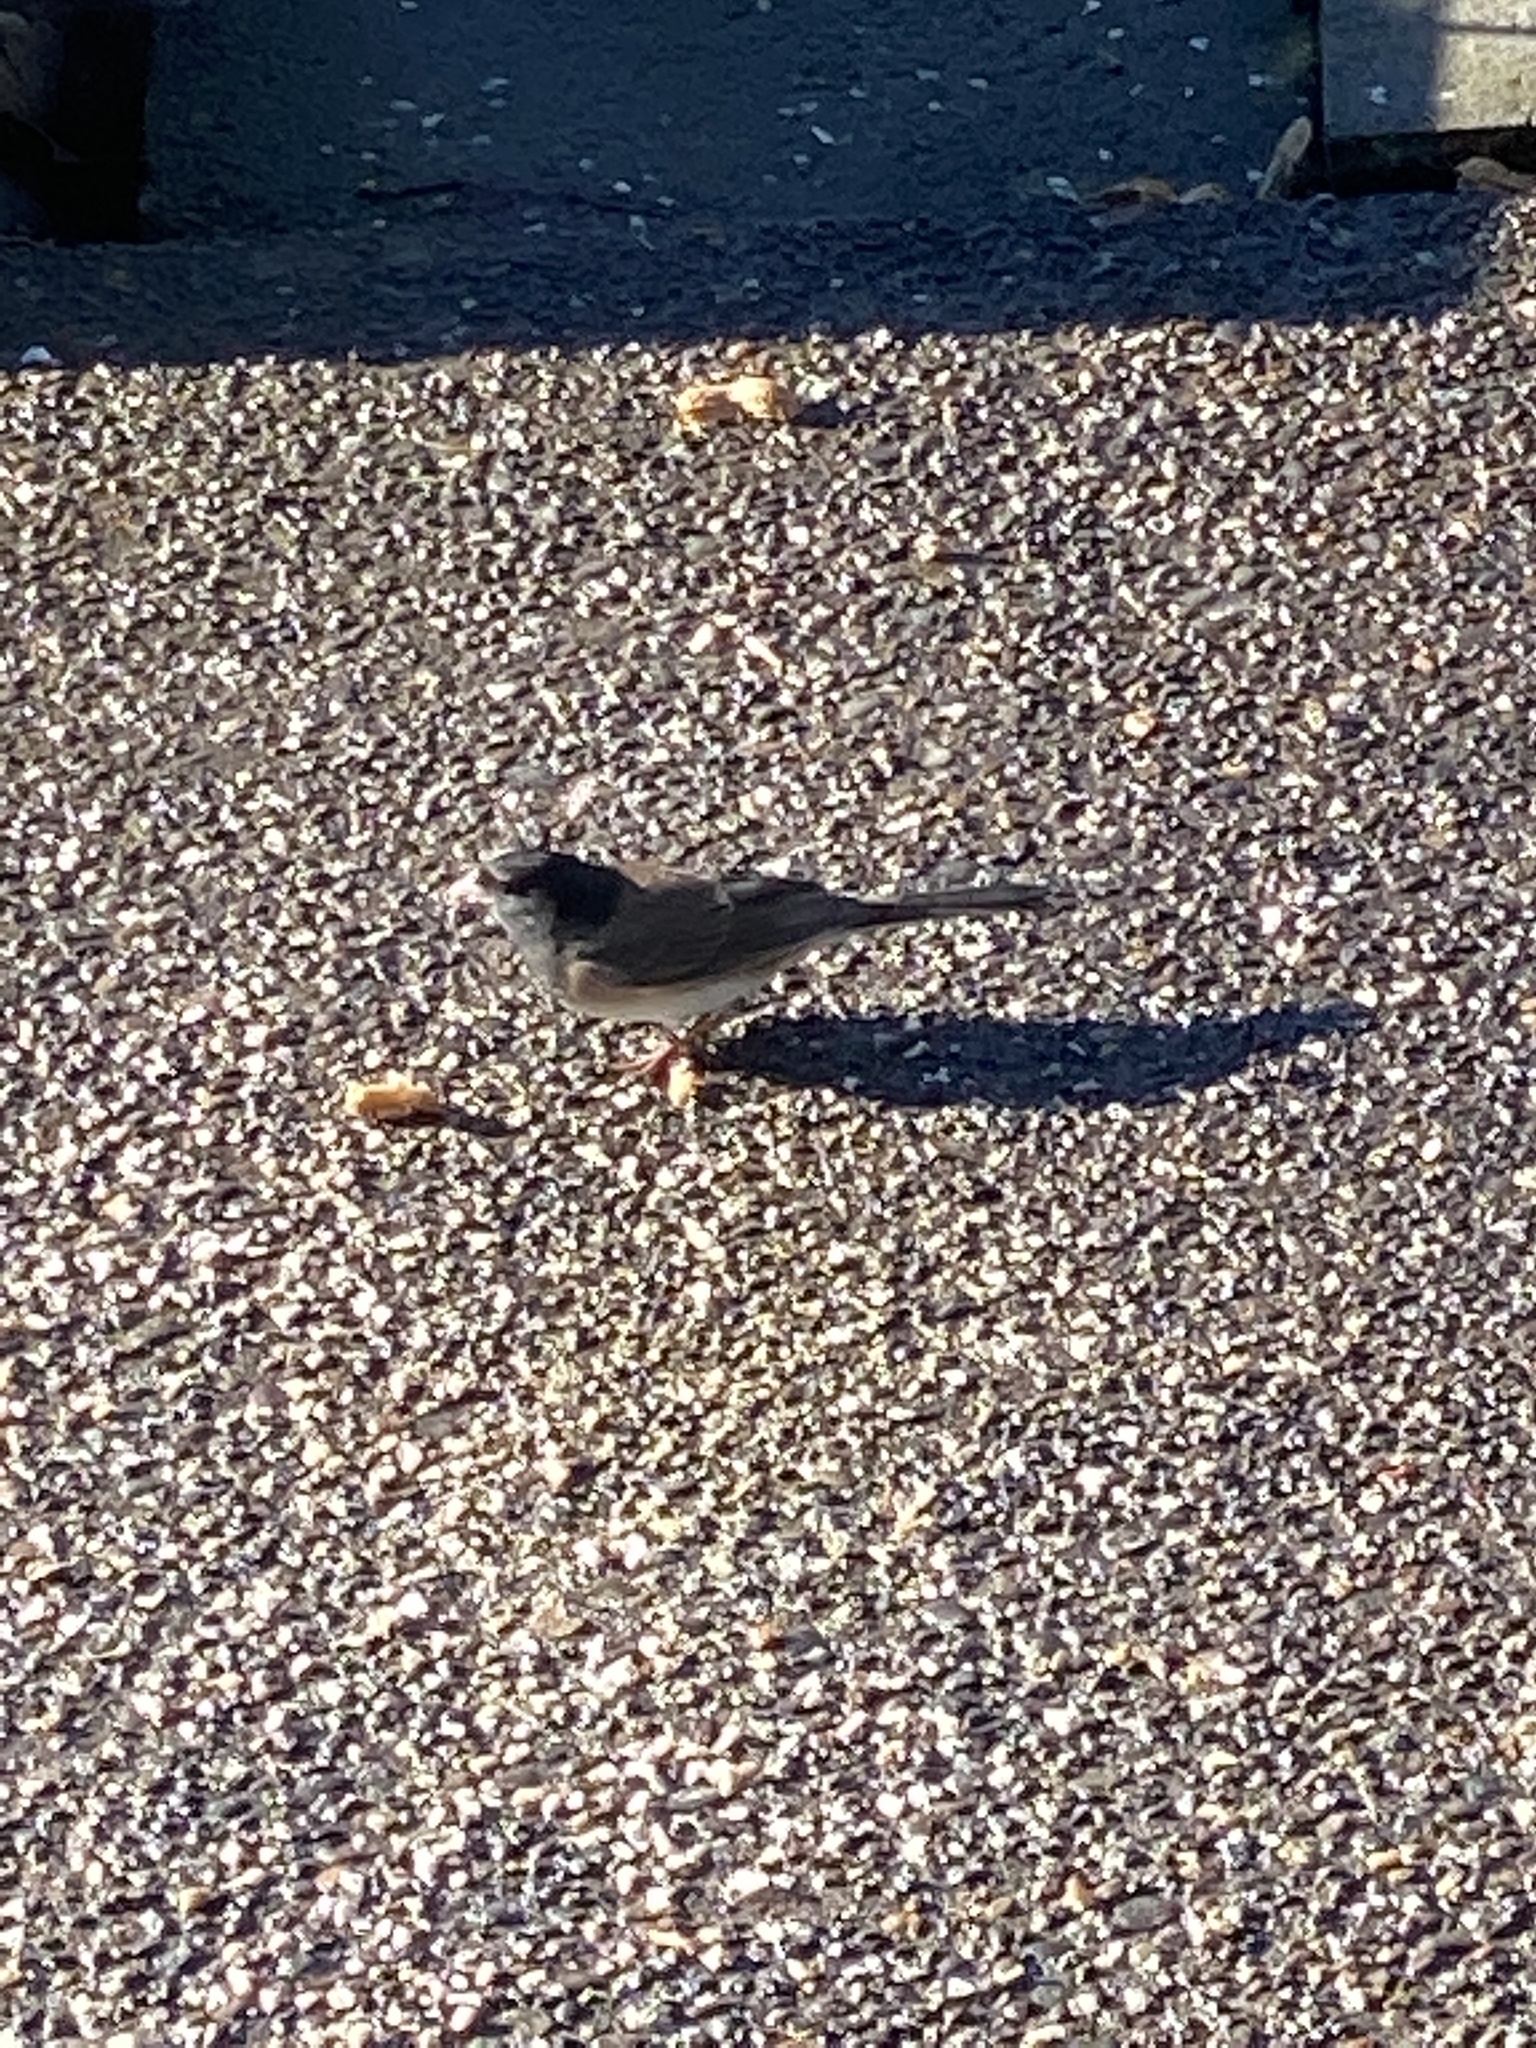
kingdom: Animalia
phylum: Chordata
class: Aves
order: Passeriformes
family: Passerellidae
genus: Junco
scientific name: Junco hyemalis
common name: Dark-eyed junco
